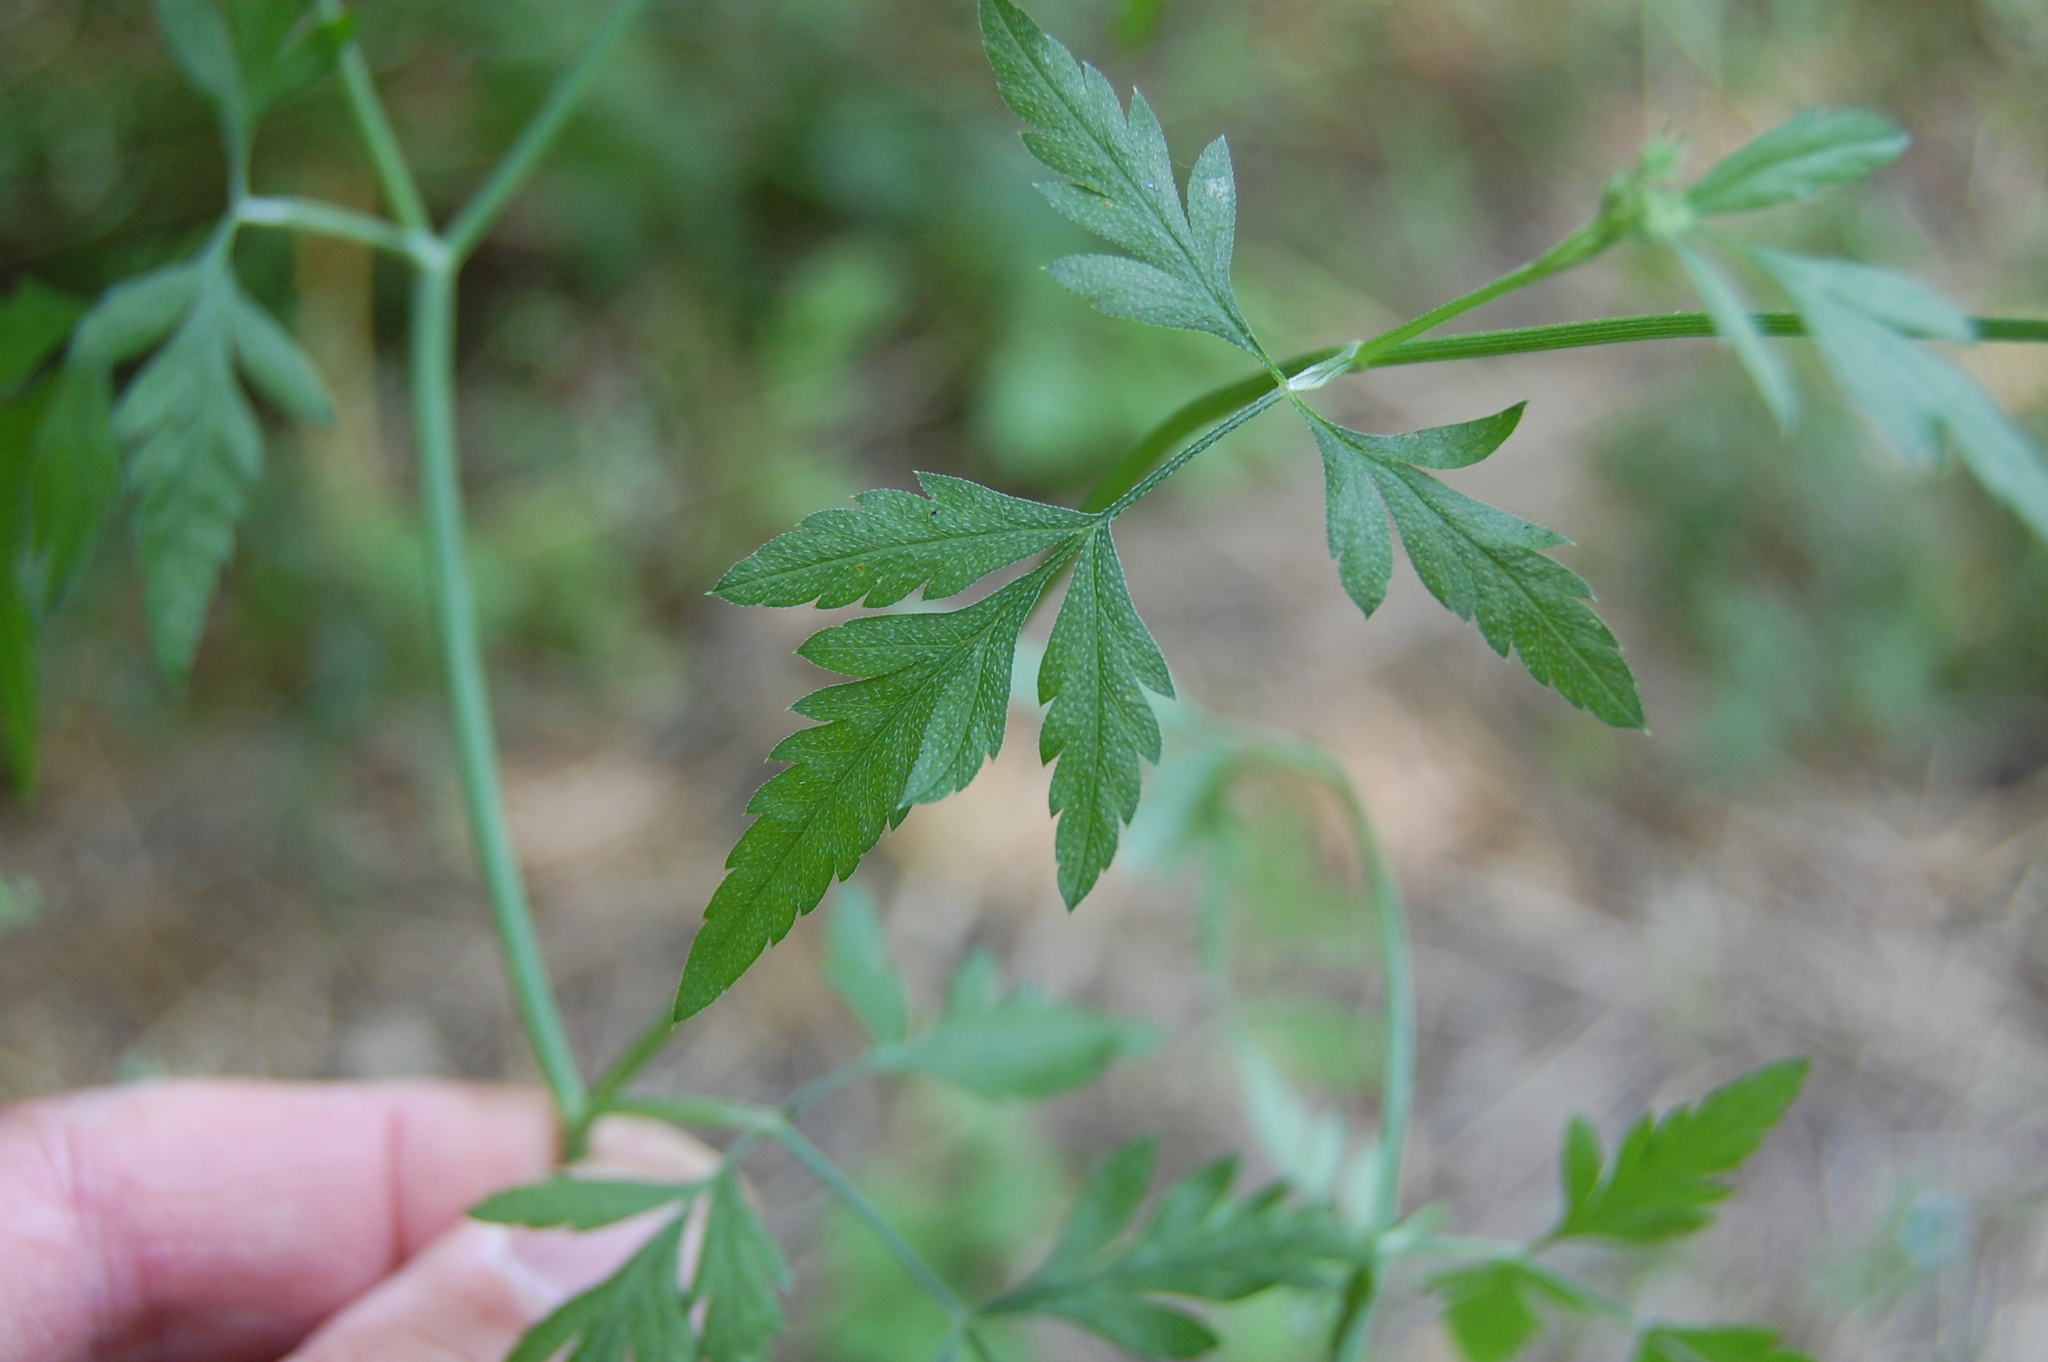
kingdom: Plantae
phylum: Tracheophyta
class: Magnoliopsida
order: Apiales
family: Apiaceae
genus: Torilis
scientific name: Torilis arvensis
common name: Spreading hedge-parsley
